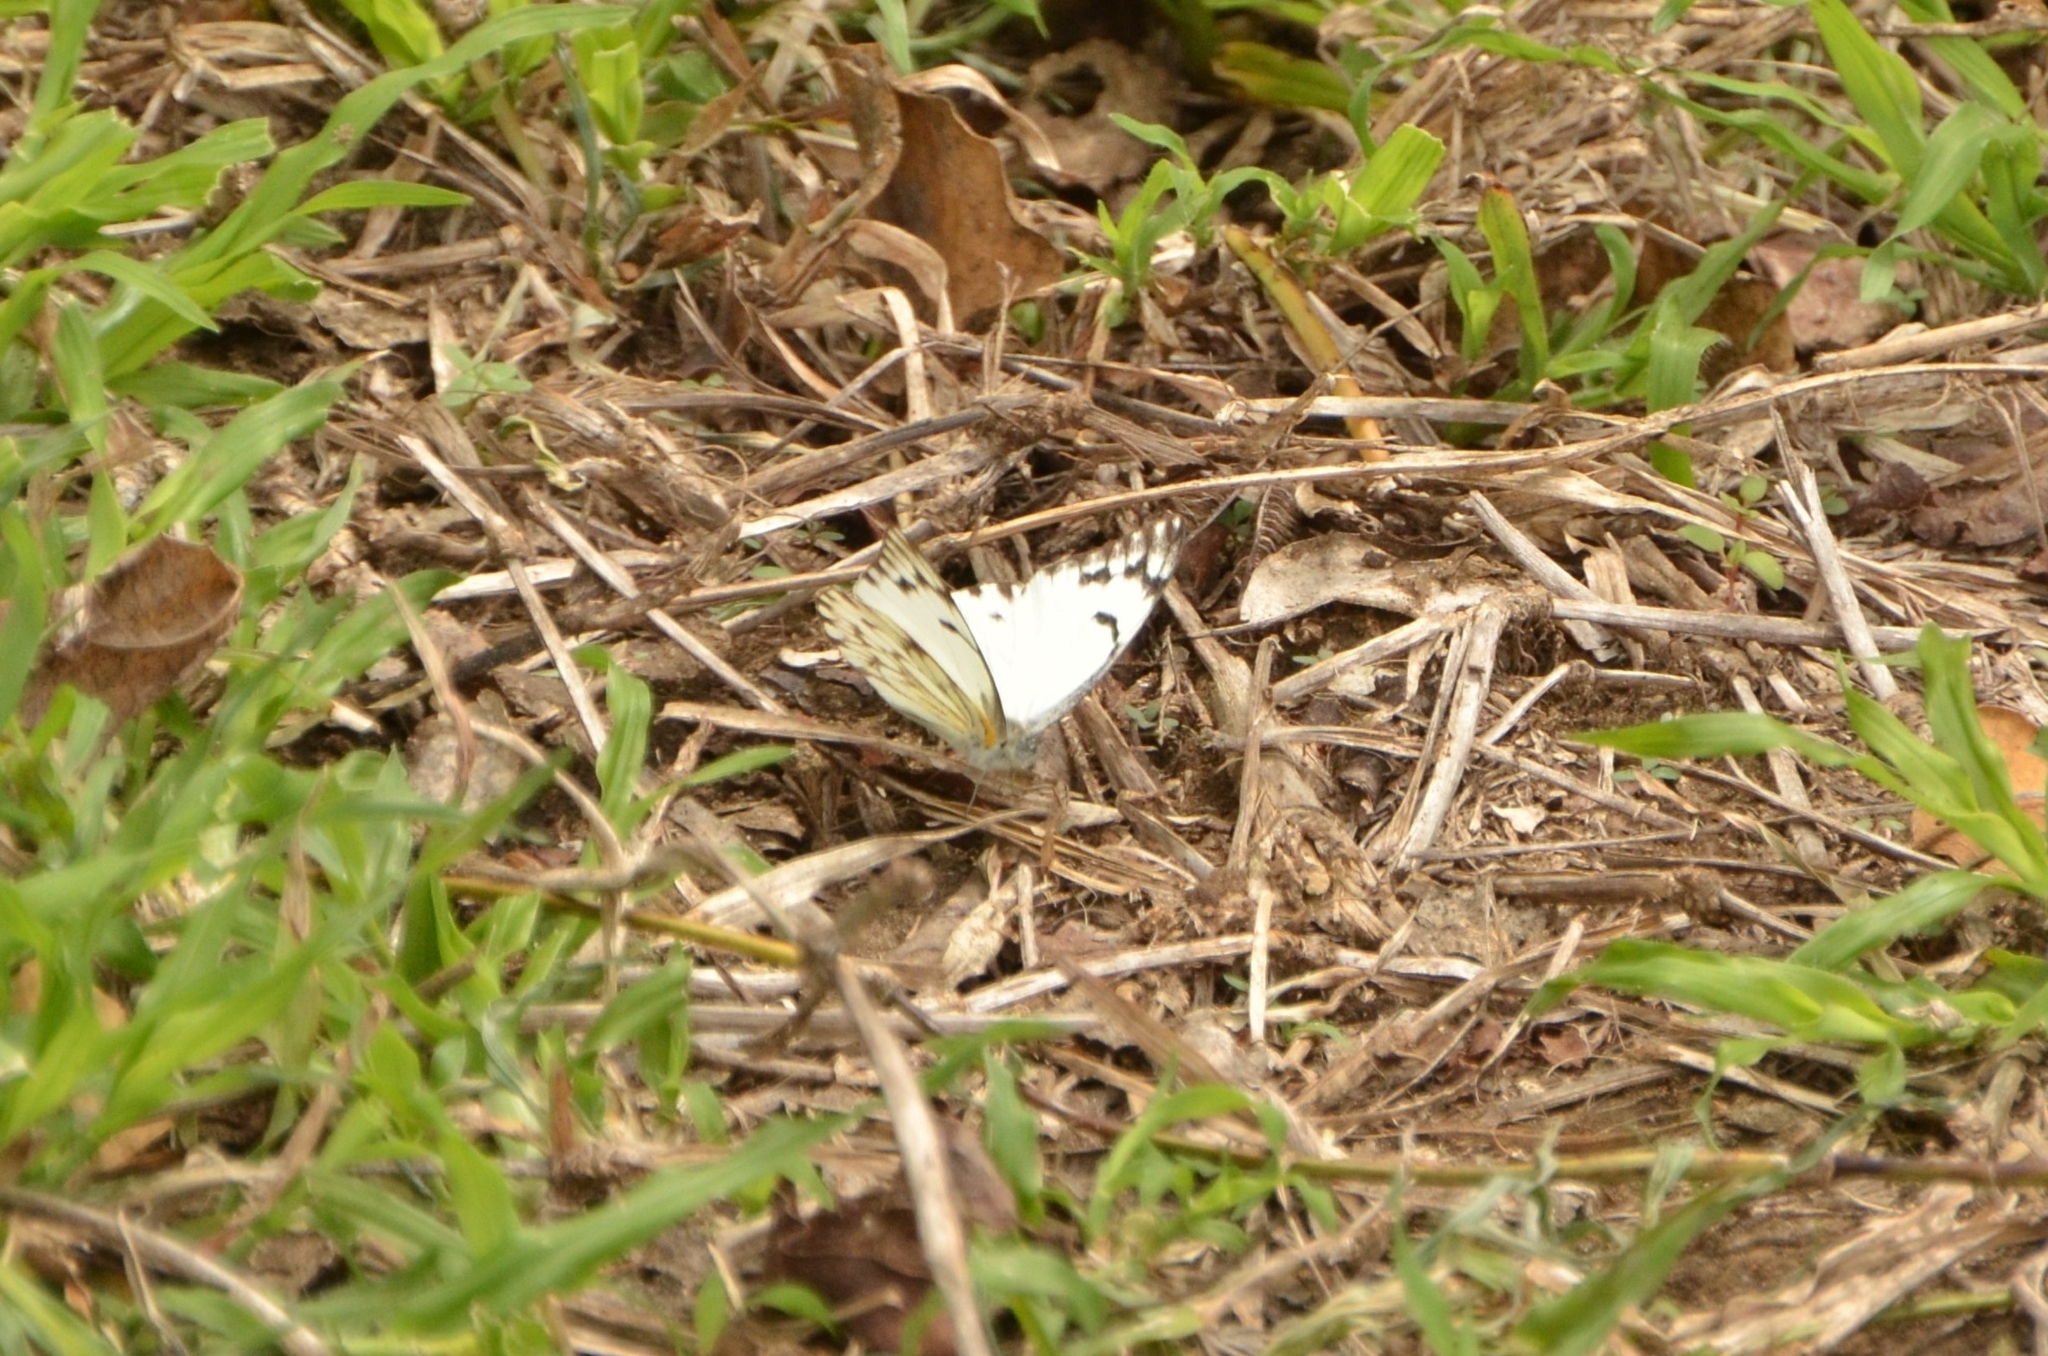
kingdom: Animalia
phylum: Arthropoda
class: Insecta
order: Lepidoptera
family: Pieridae
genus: Belenois
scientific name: Belenois gidica
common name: Pointed caper white
